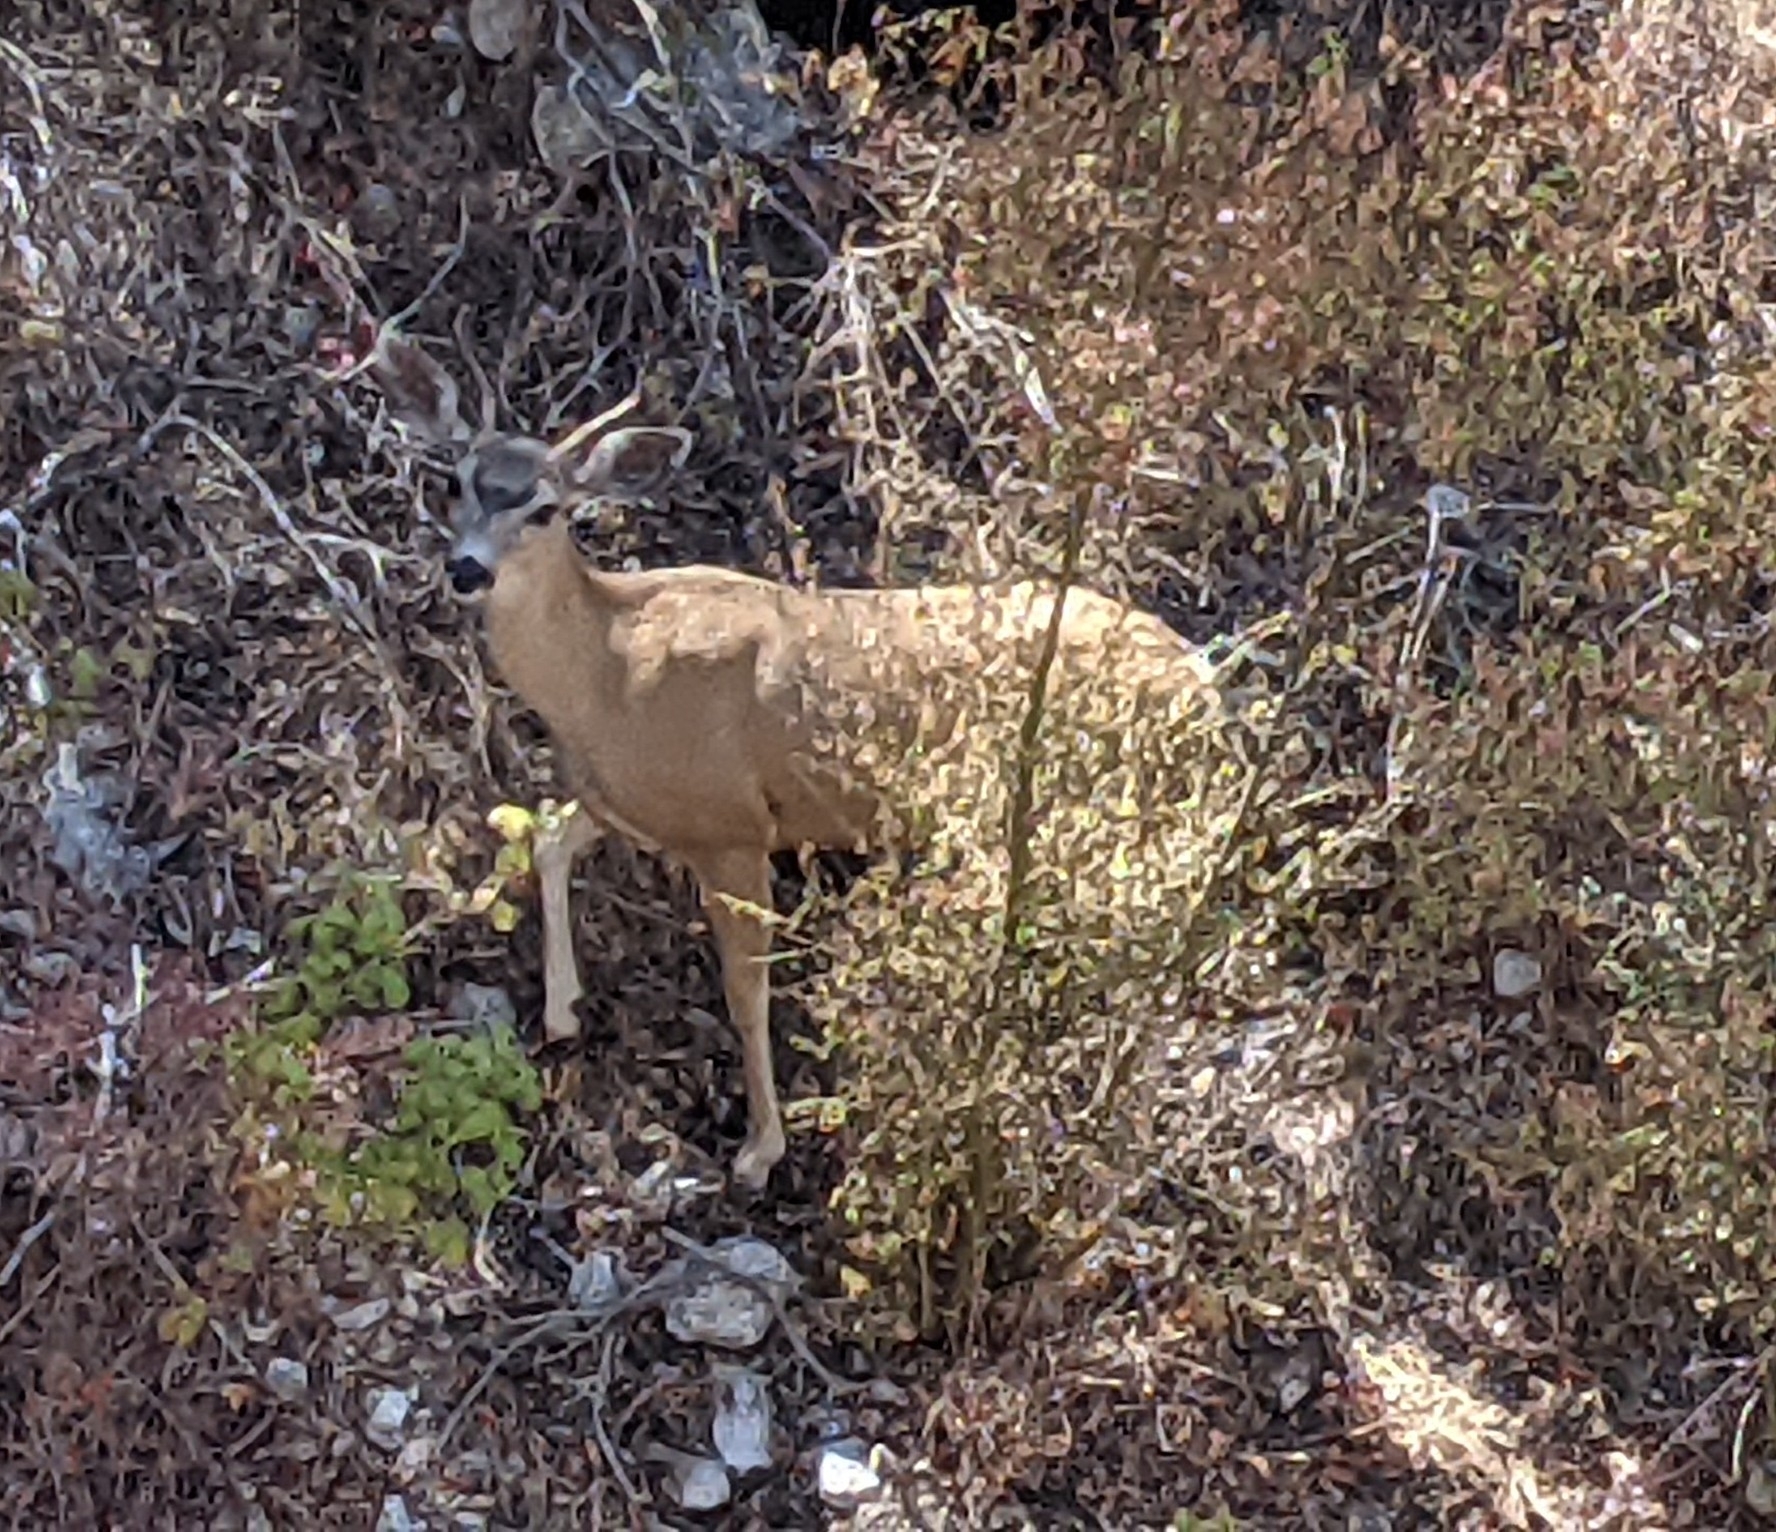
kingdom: Animalia
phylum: Chordata
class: Mammalia
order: Artiodactyla
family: Cervidae
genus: Odocoileus
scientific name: Odocoileus hemionus
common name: Mule deer
